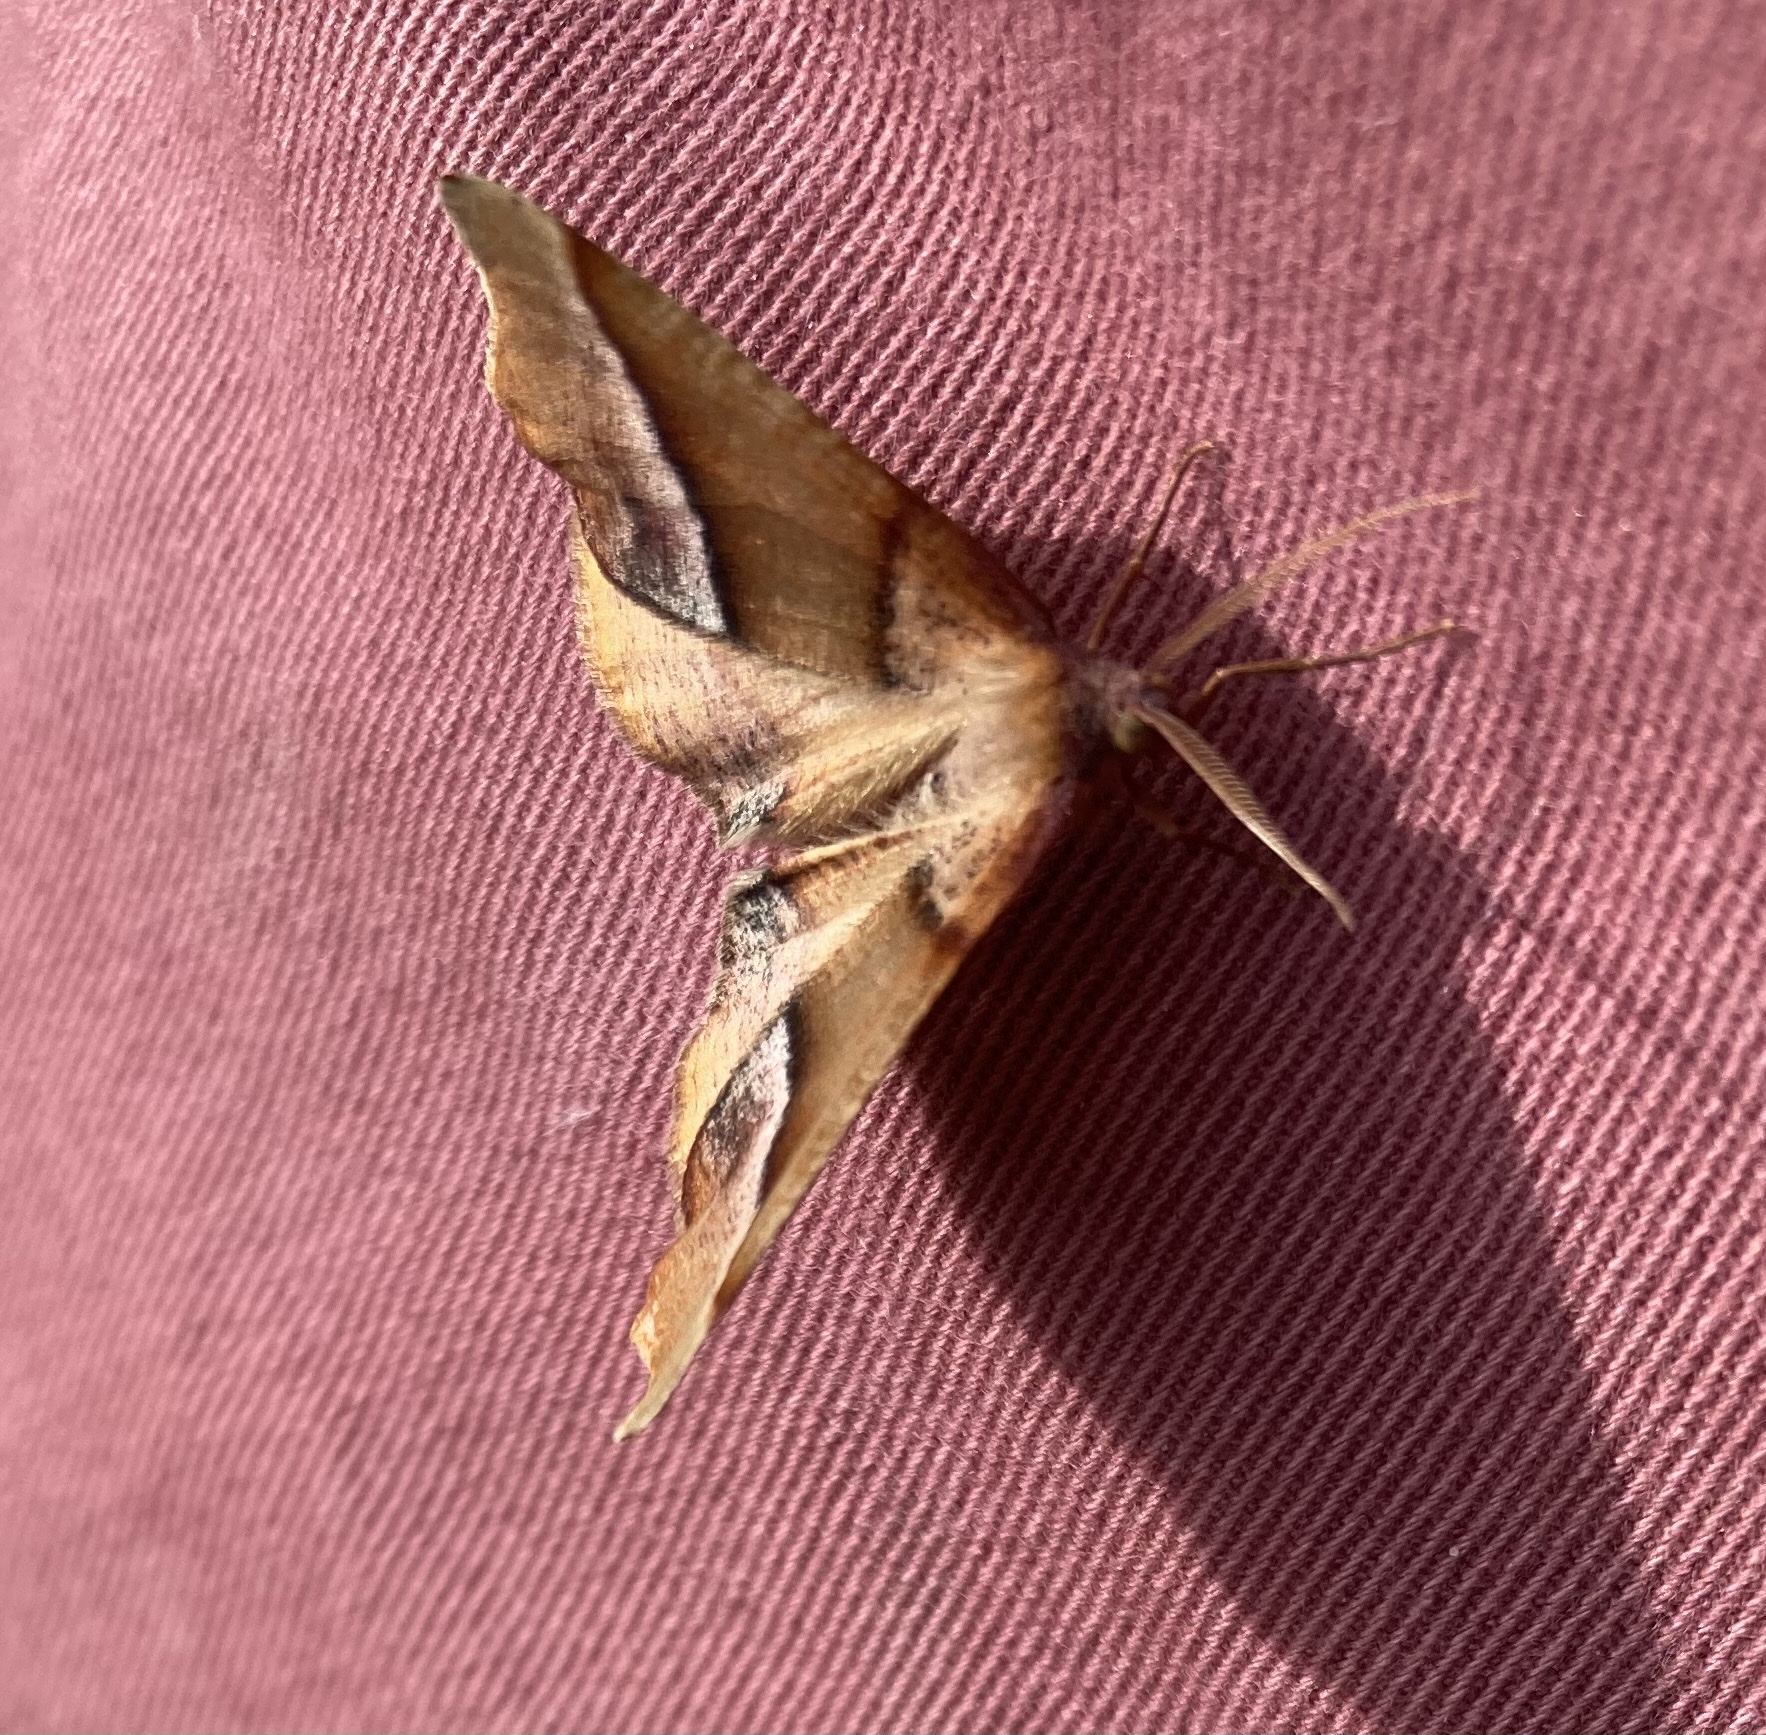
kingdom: Animalia
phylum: Arthropoda
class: Insecta
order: Lepidoptera
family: Geometridae
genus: Plagodis
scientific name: Plagodis phlogosaria
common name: Straight-lined plagodis
